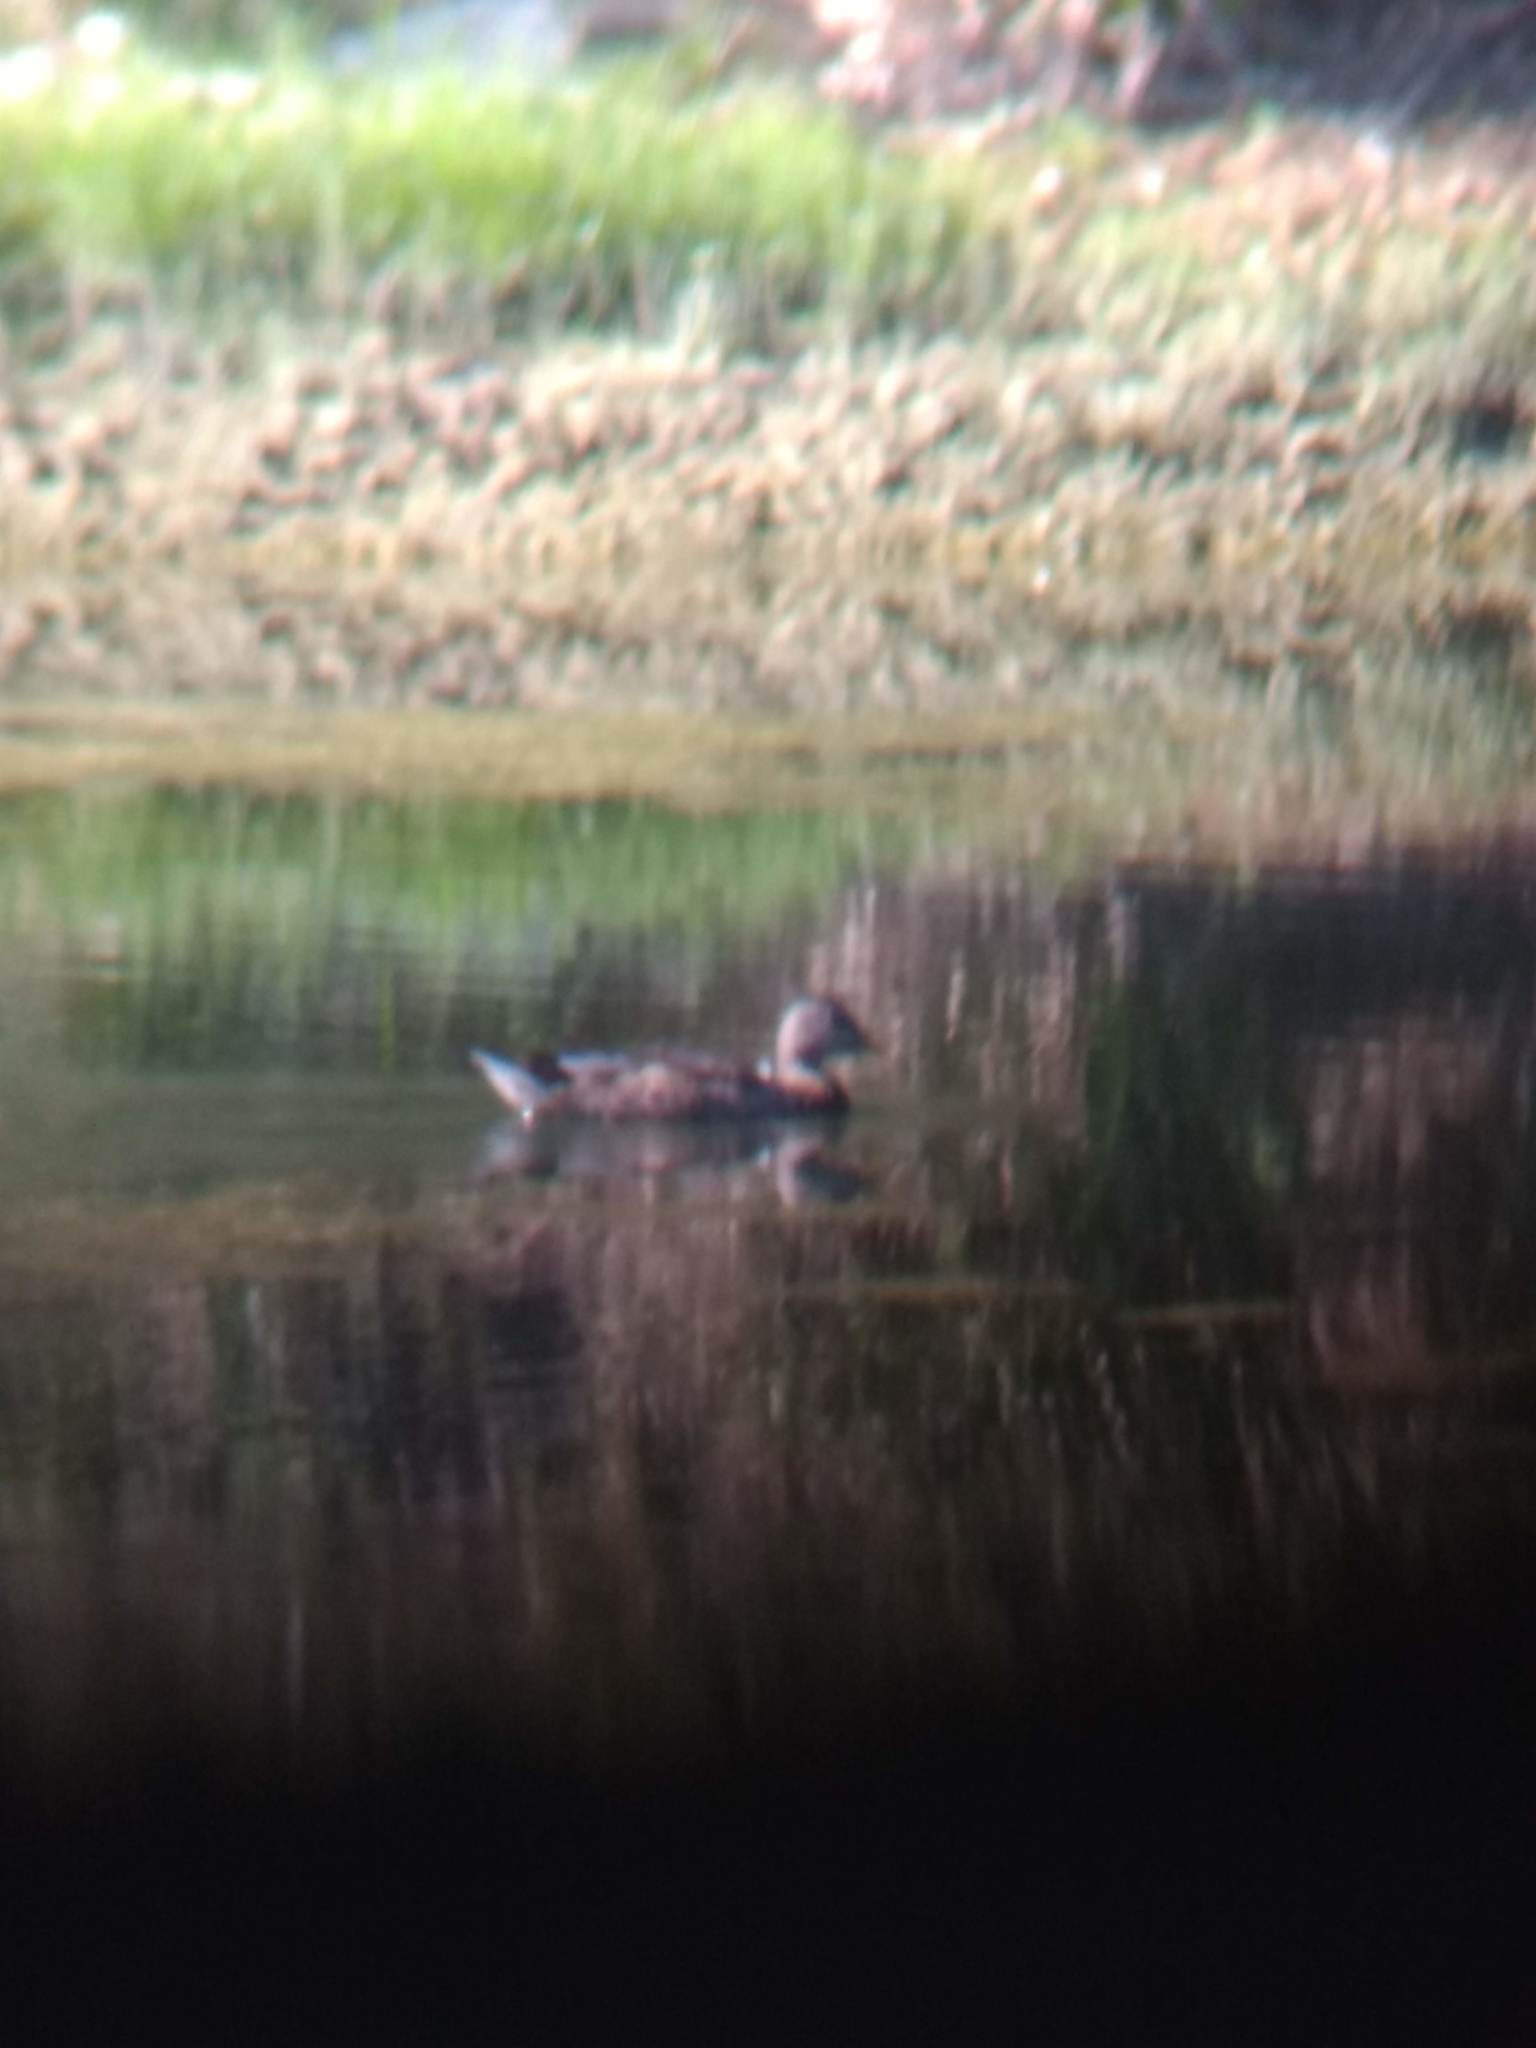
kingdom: Animalia
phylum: Chordata
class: Aves
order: Anseriformes
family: Anatidae
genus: Anas
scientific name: Anas platyrhynchos
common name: Mallard
